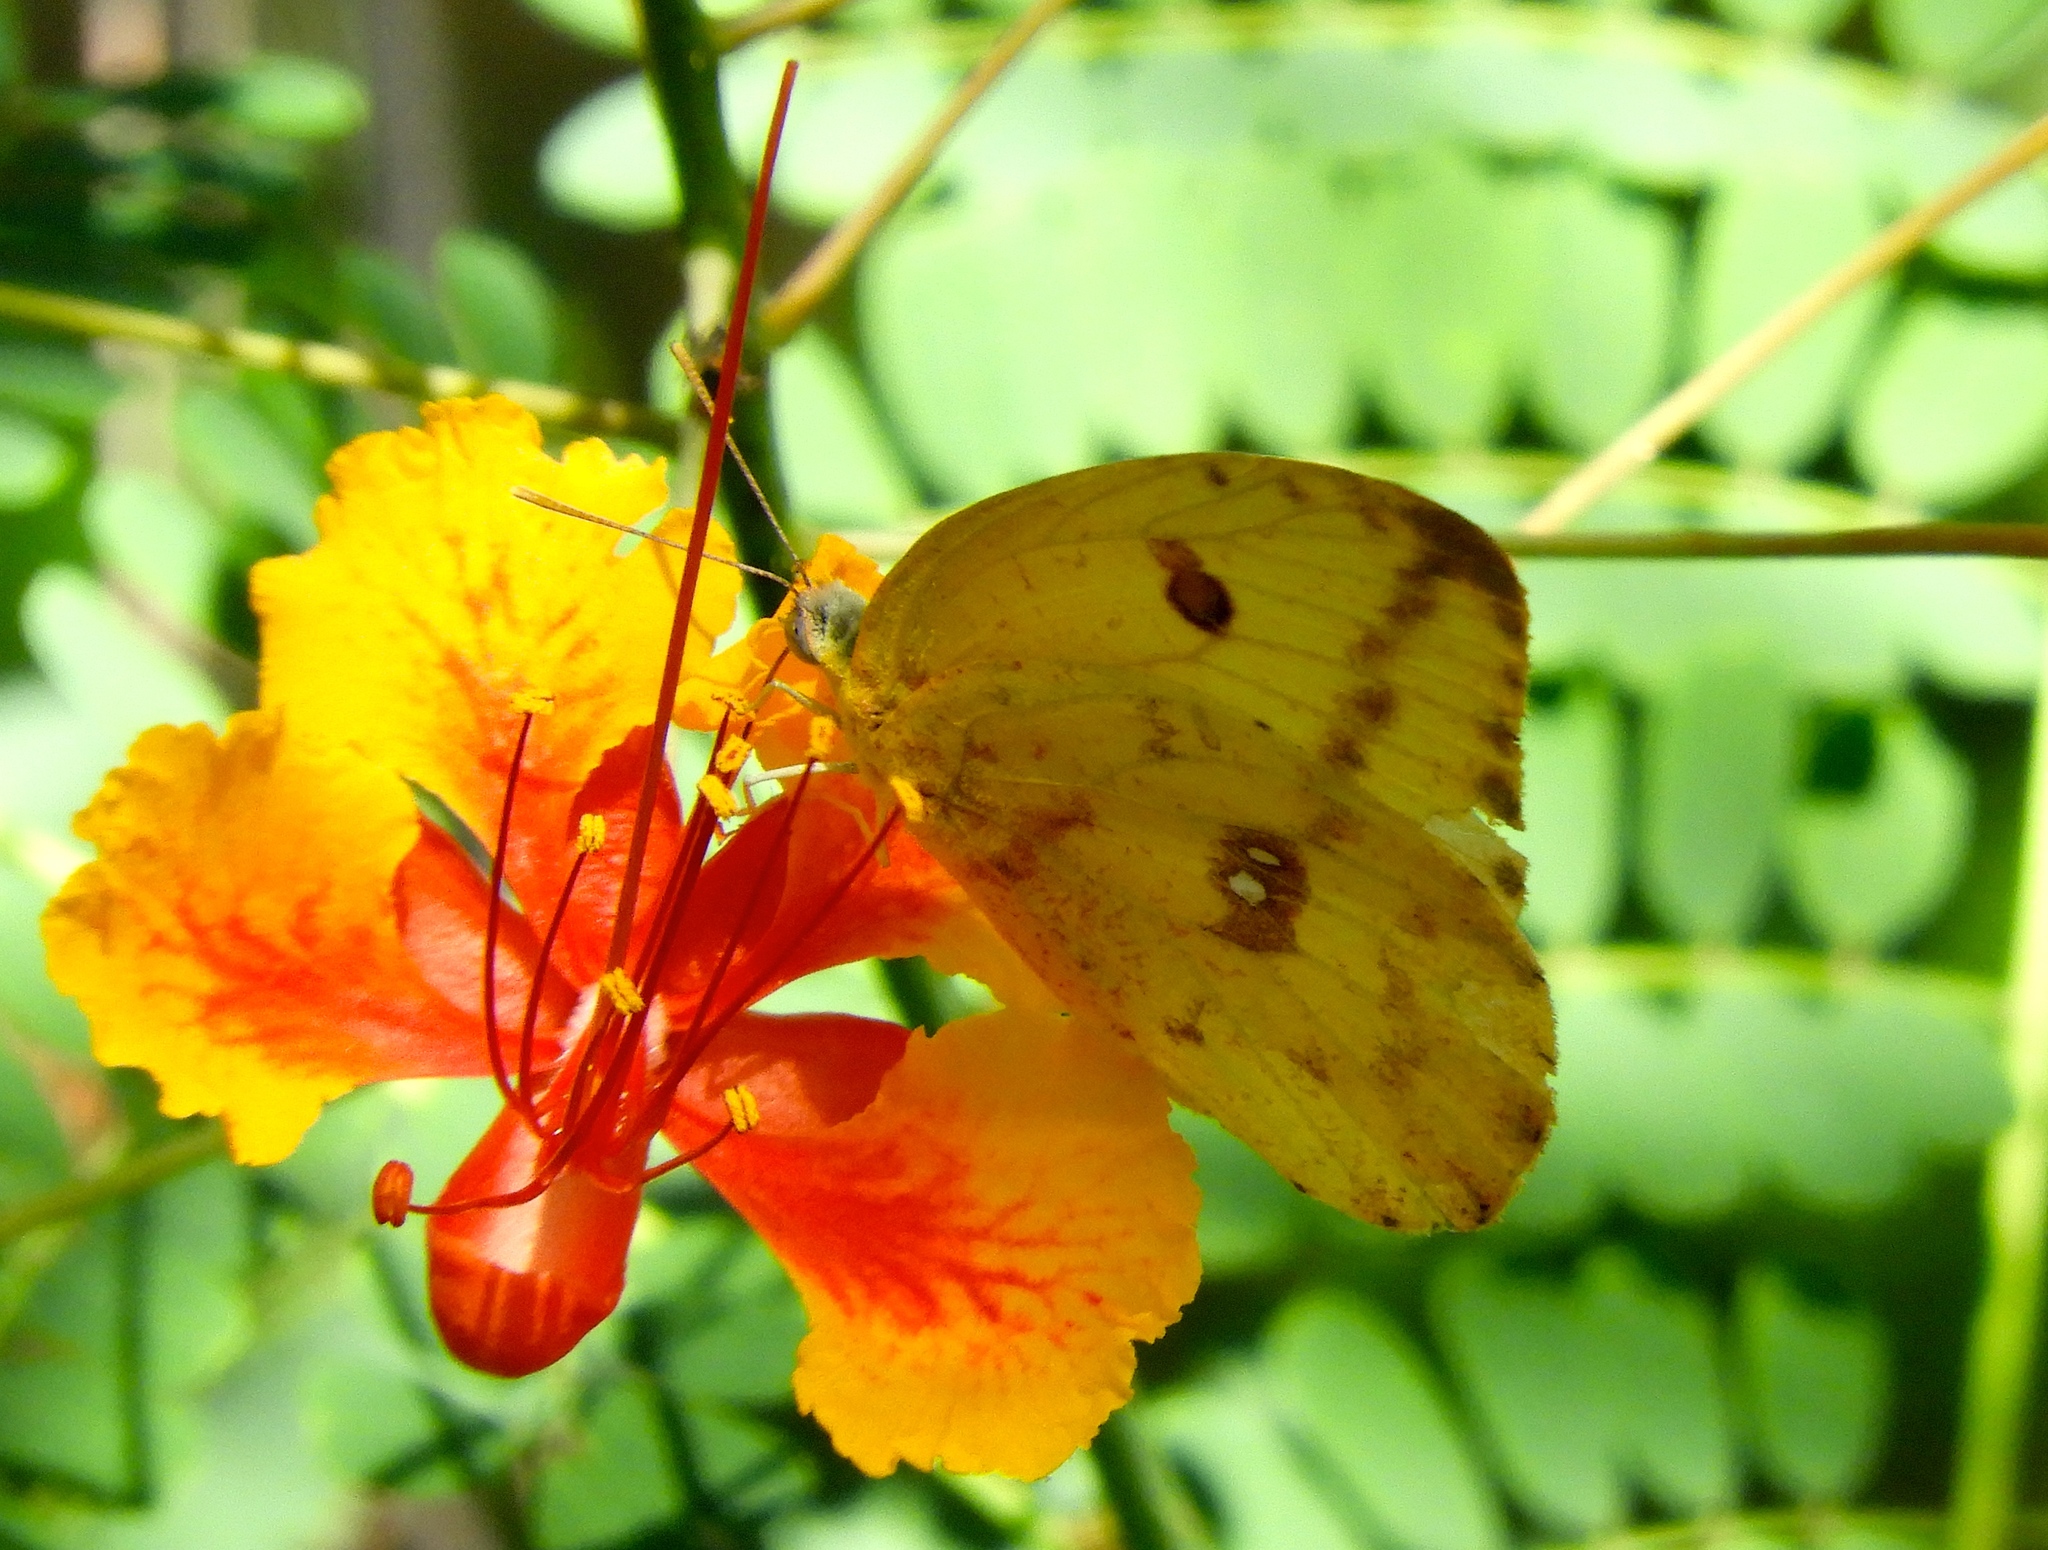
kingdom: Animalia
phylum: Arthropoda
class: Insecta
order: Lepidoptera
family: Pieridae
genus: Phoebis
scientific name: Phoebis agarithe
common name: Large orange sulphur
